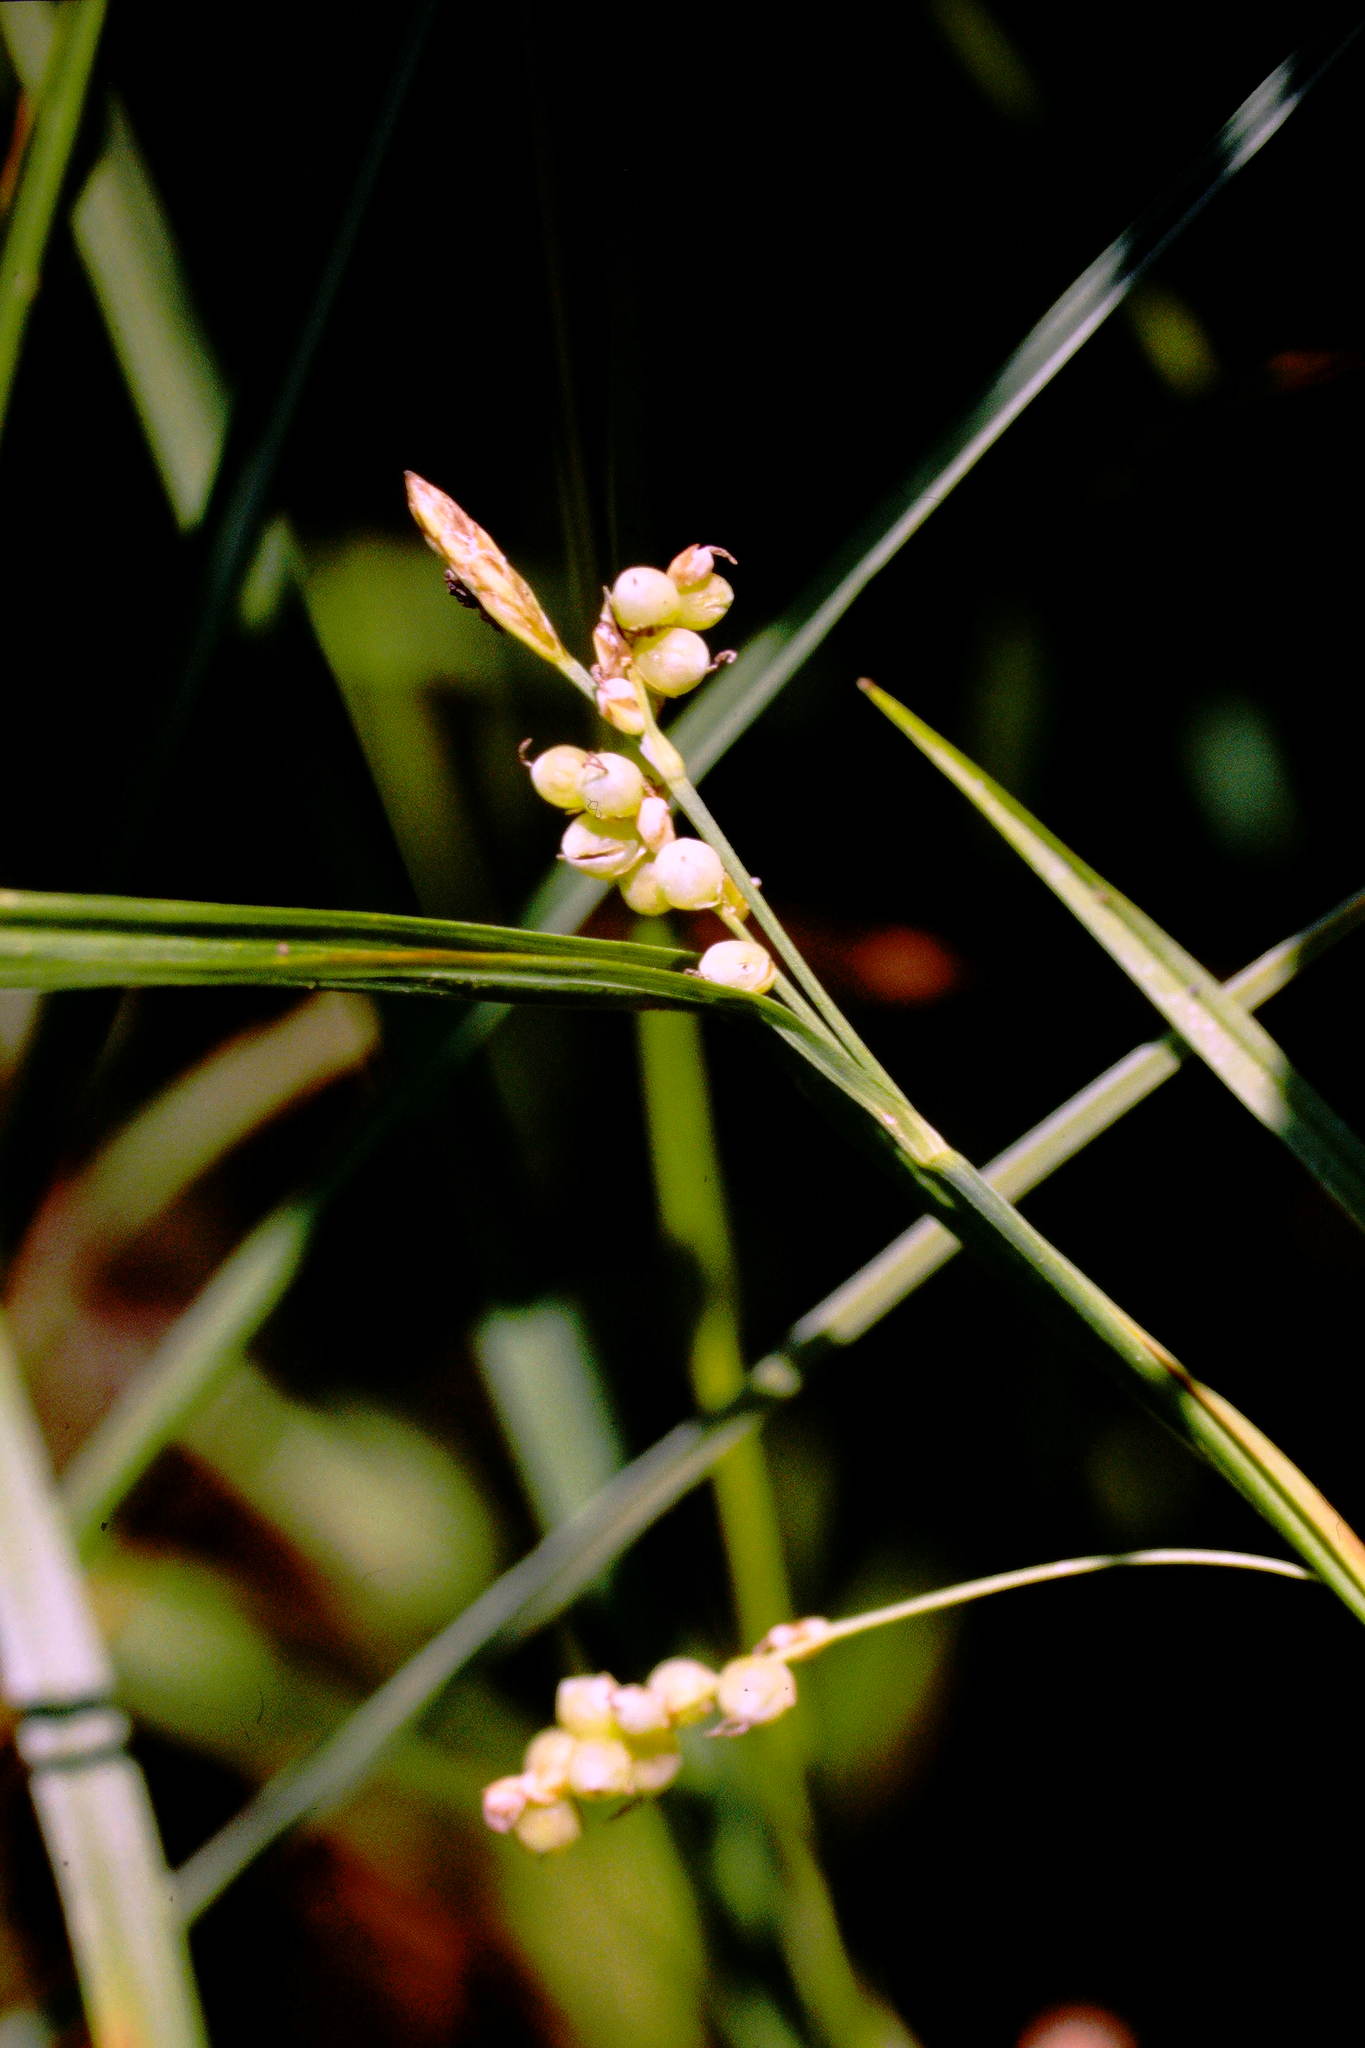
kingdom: Plantae
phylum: Tracheophyta
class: Liliopsida
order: Poales
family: Cyperaceae
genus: Carex
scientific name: Carex aurea
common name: Golden sedge
